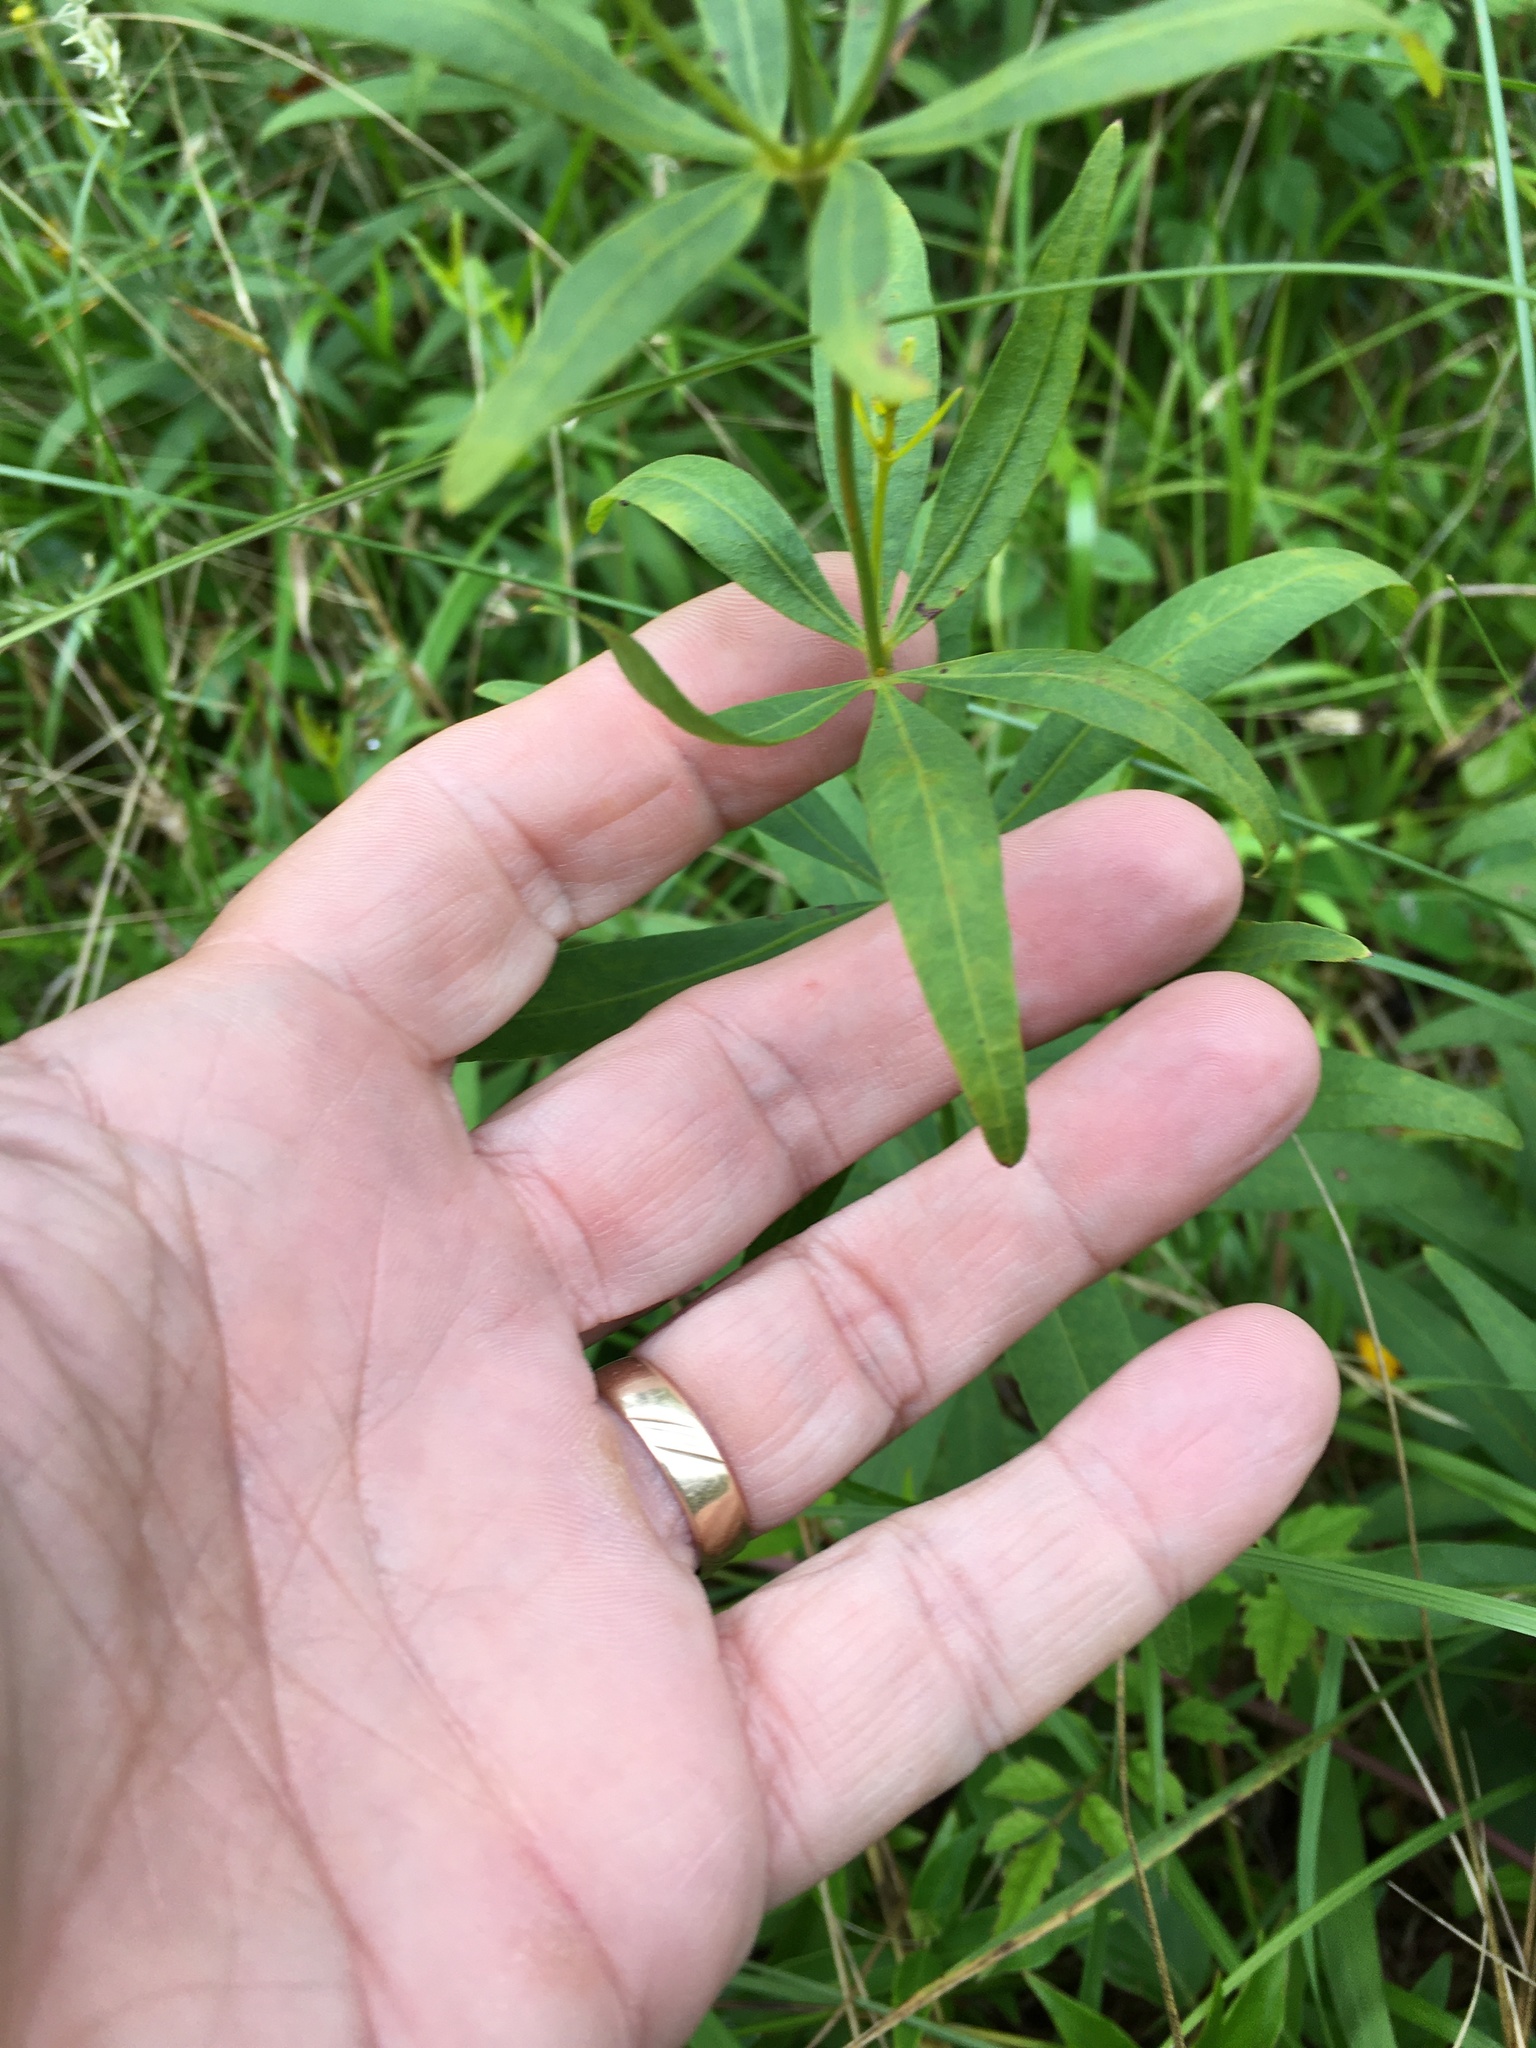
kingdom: Plantae
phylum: Tracheophyta
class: Magnoliopsida
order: Asterales
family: Asteraceae
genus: Coreopsis
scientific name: Coreopsis major
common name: Forest tickseed
